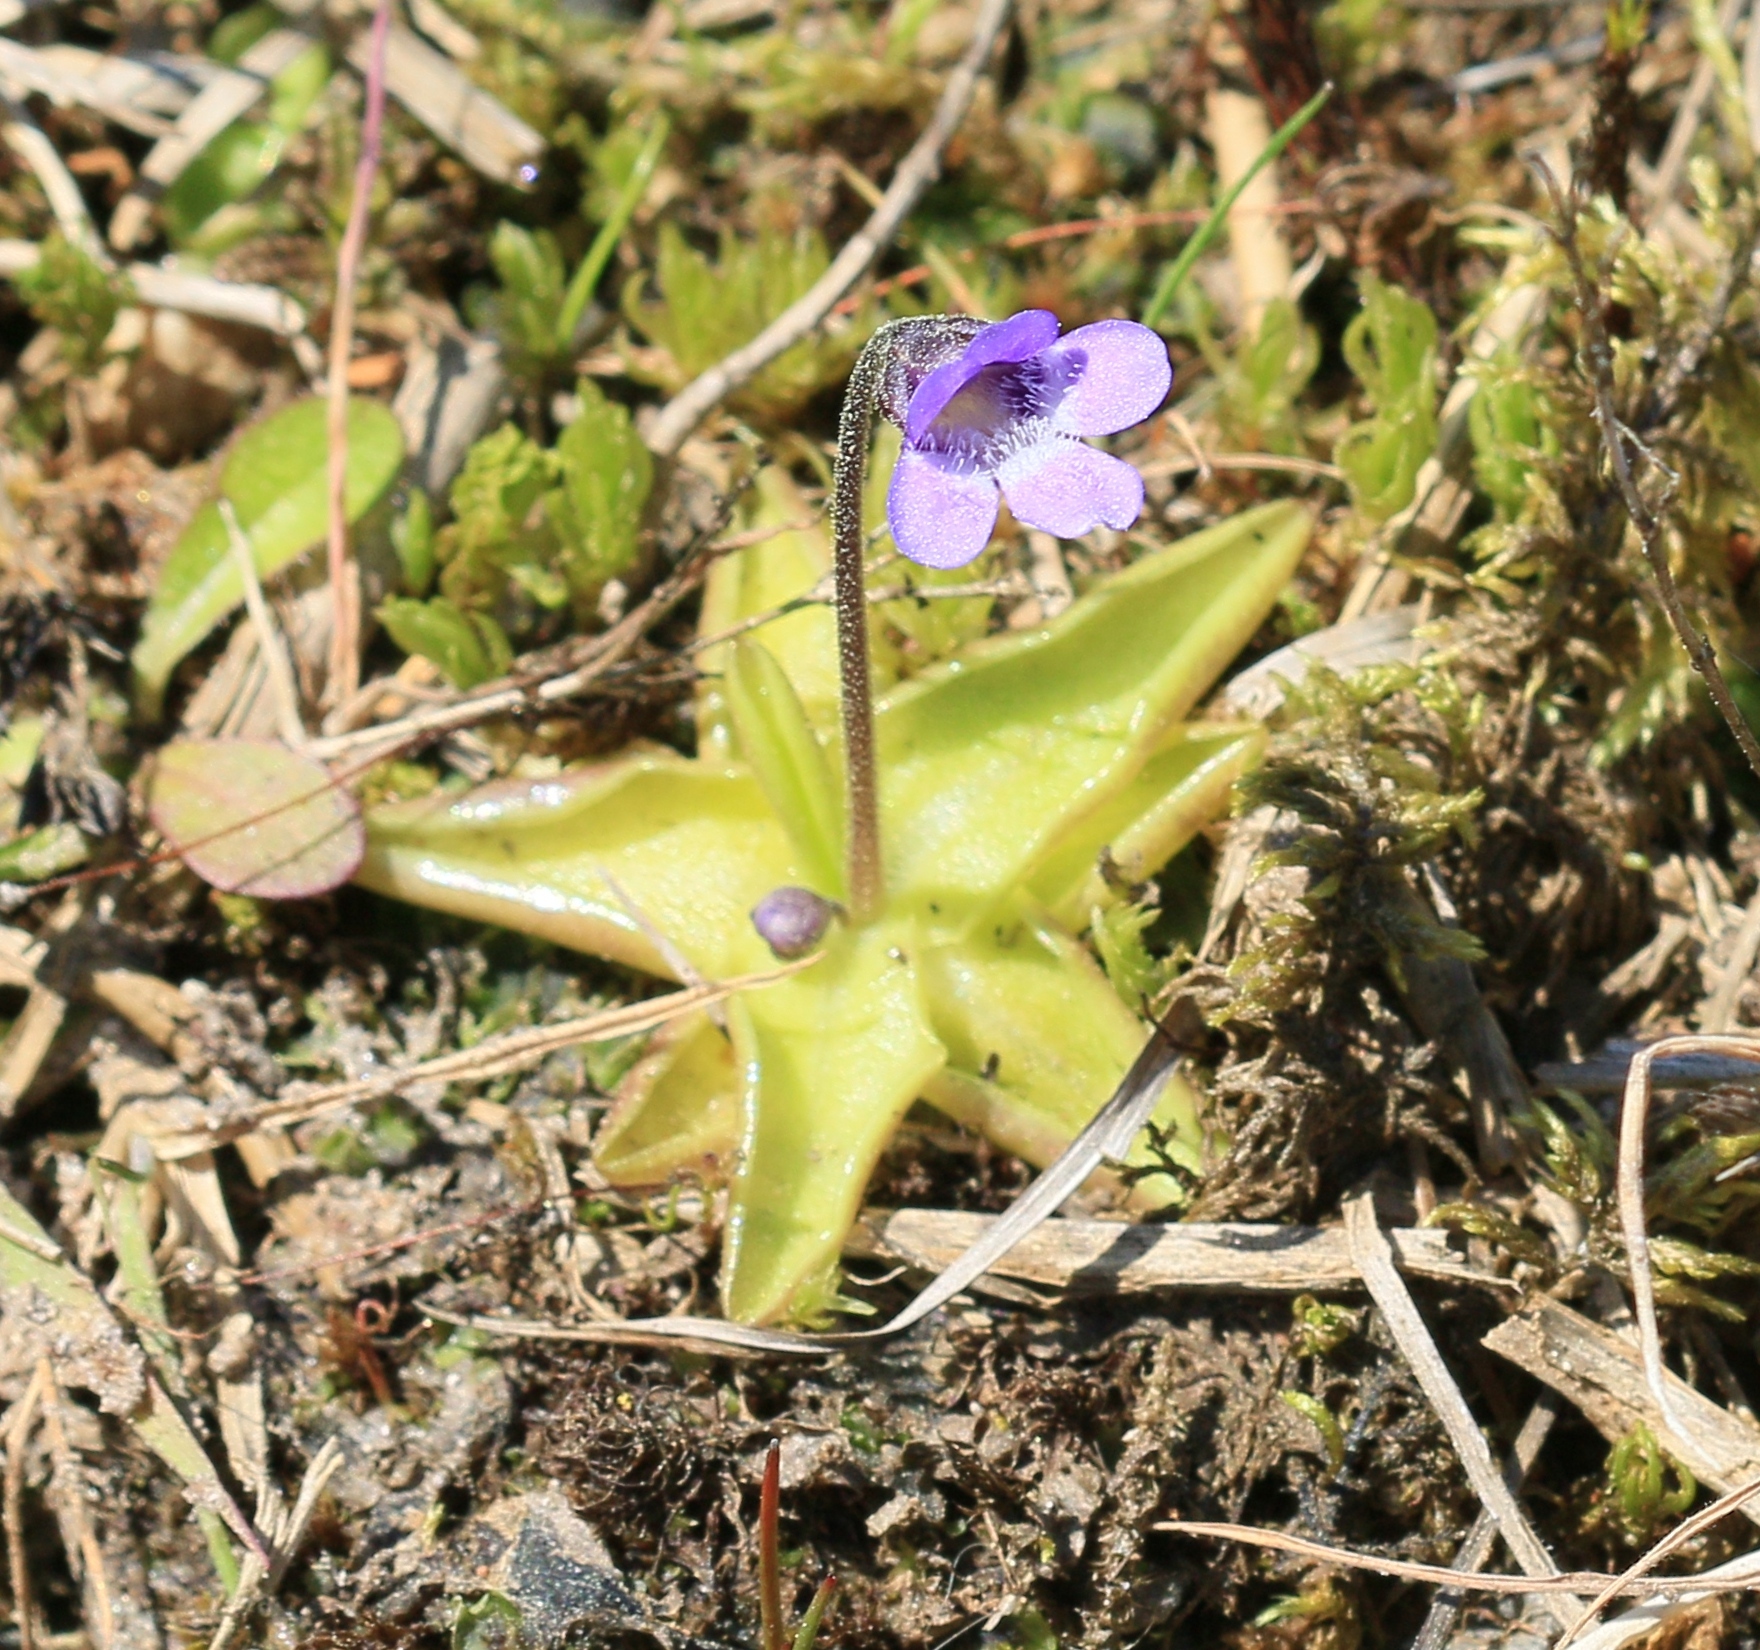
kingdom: Plantae
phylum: Tracheophyta
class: Magnoliopsida
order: Lamiales
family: Lentibulariaceae
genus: Pinguicula
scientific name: Pinguicula vulgaris
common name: Common butterwort
